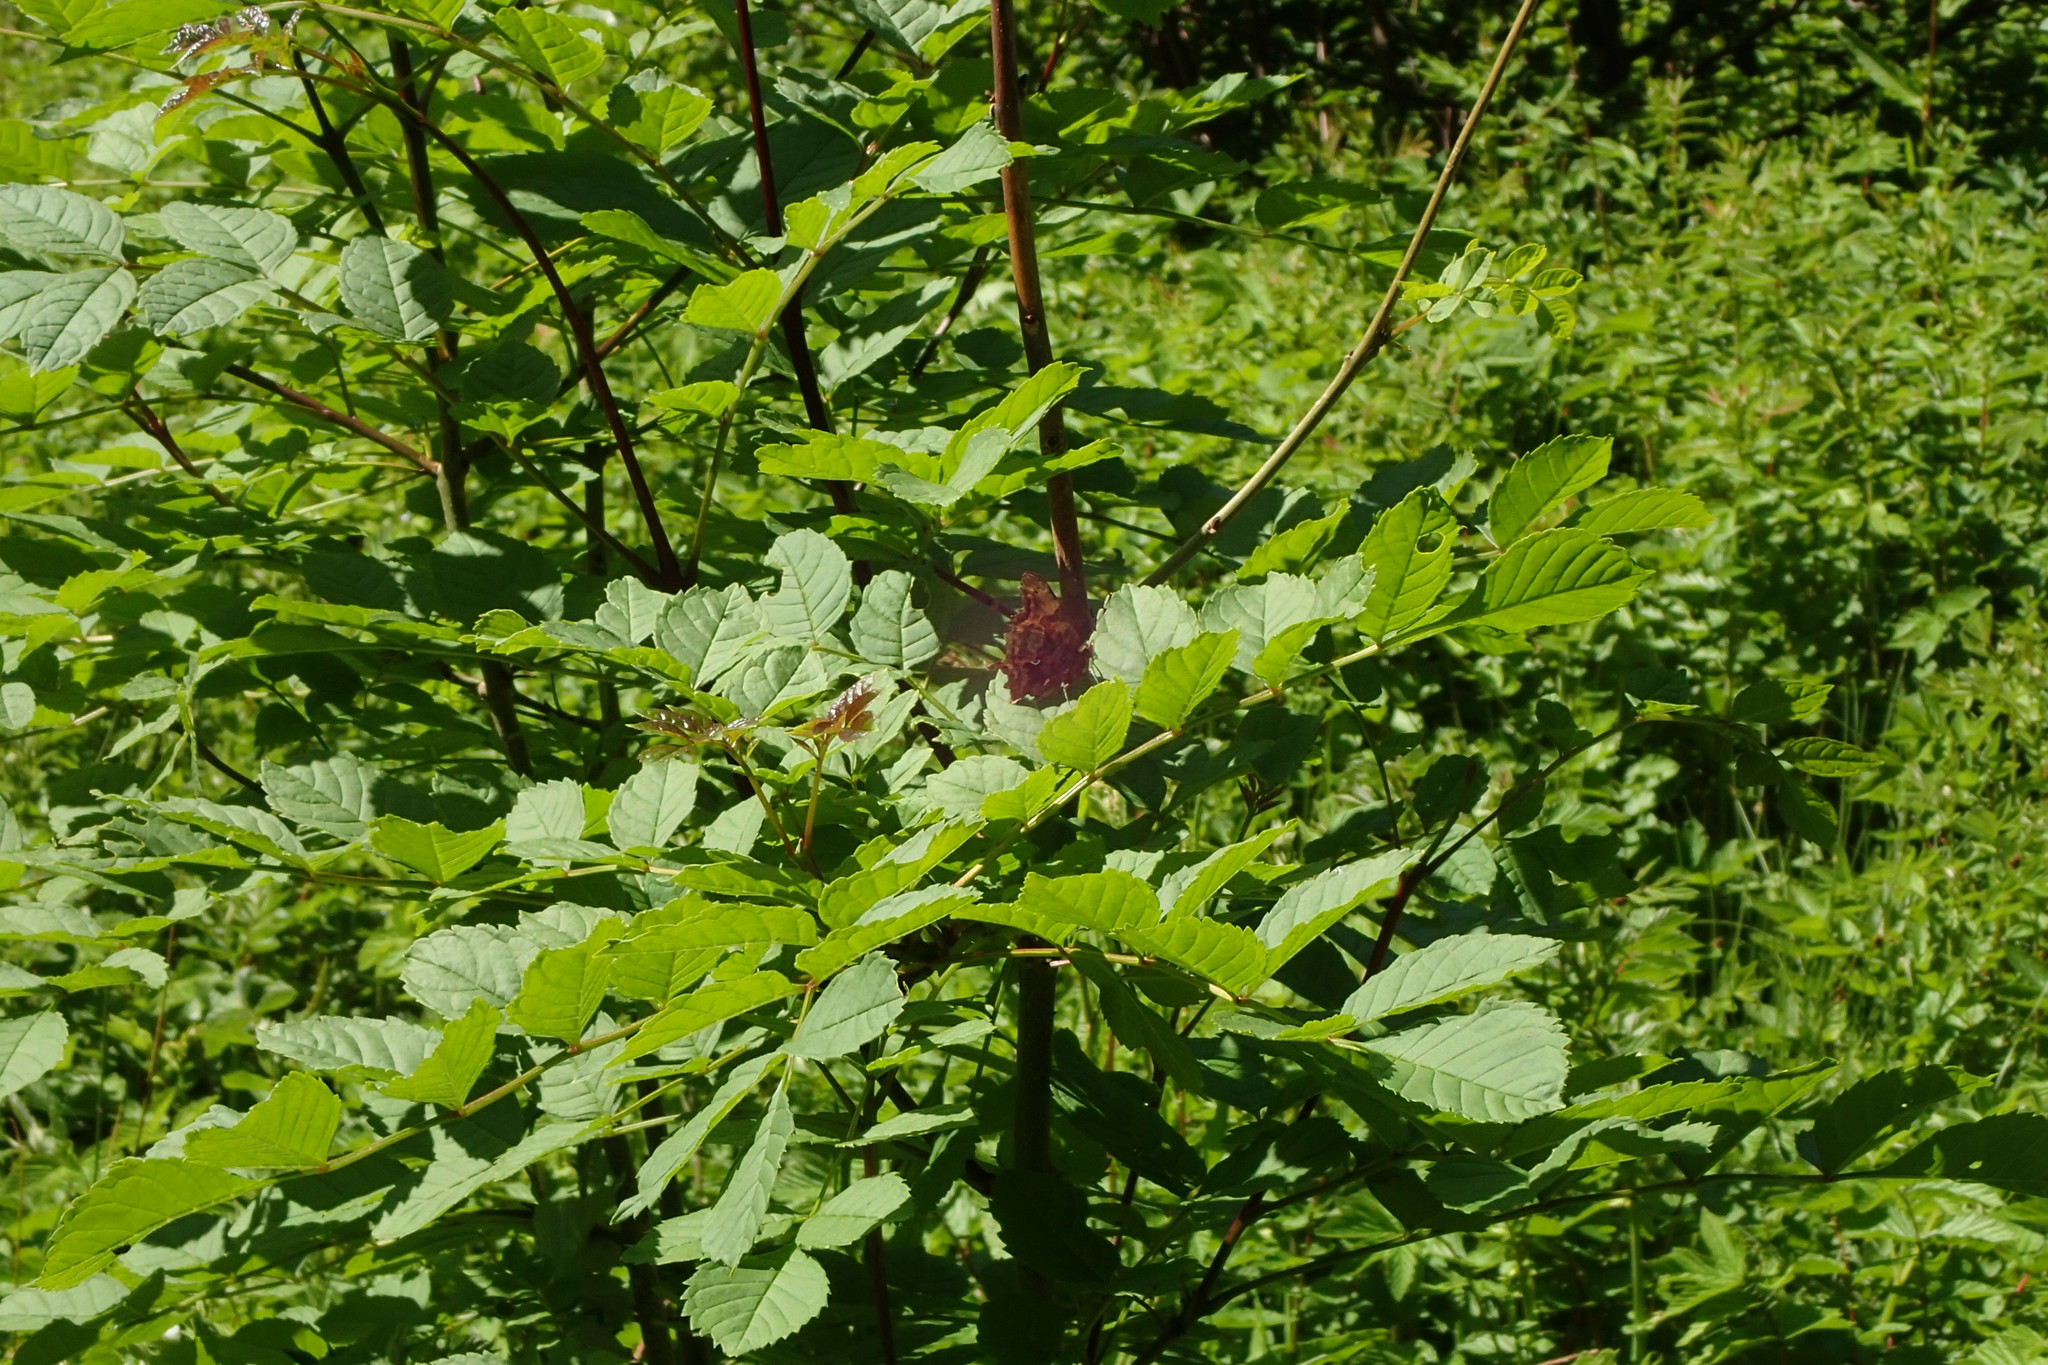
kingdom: Animalia
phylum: Arthropoda
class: Insecta
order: Lepidoptera
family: Nymphalidae
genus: Polygonia
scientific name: Polygonia c-album
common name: Comma
